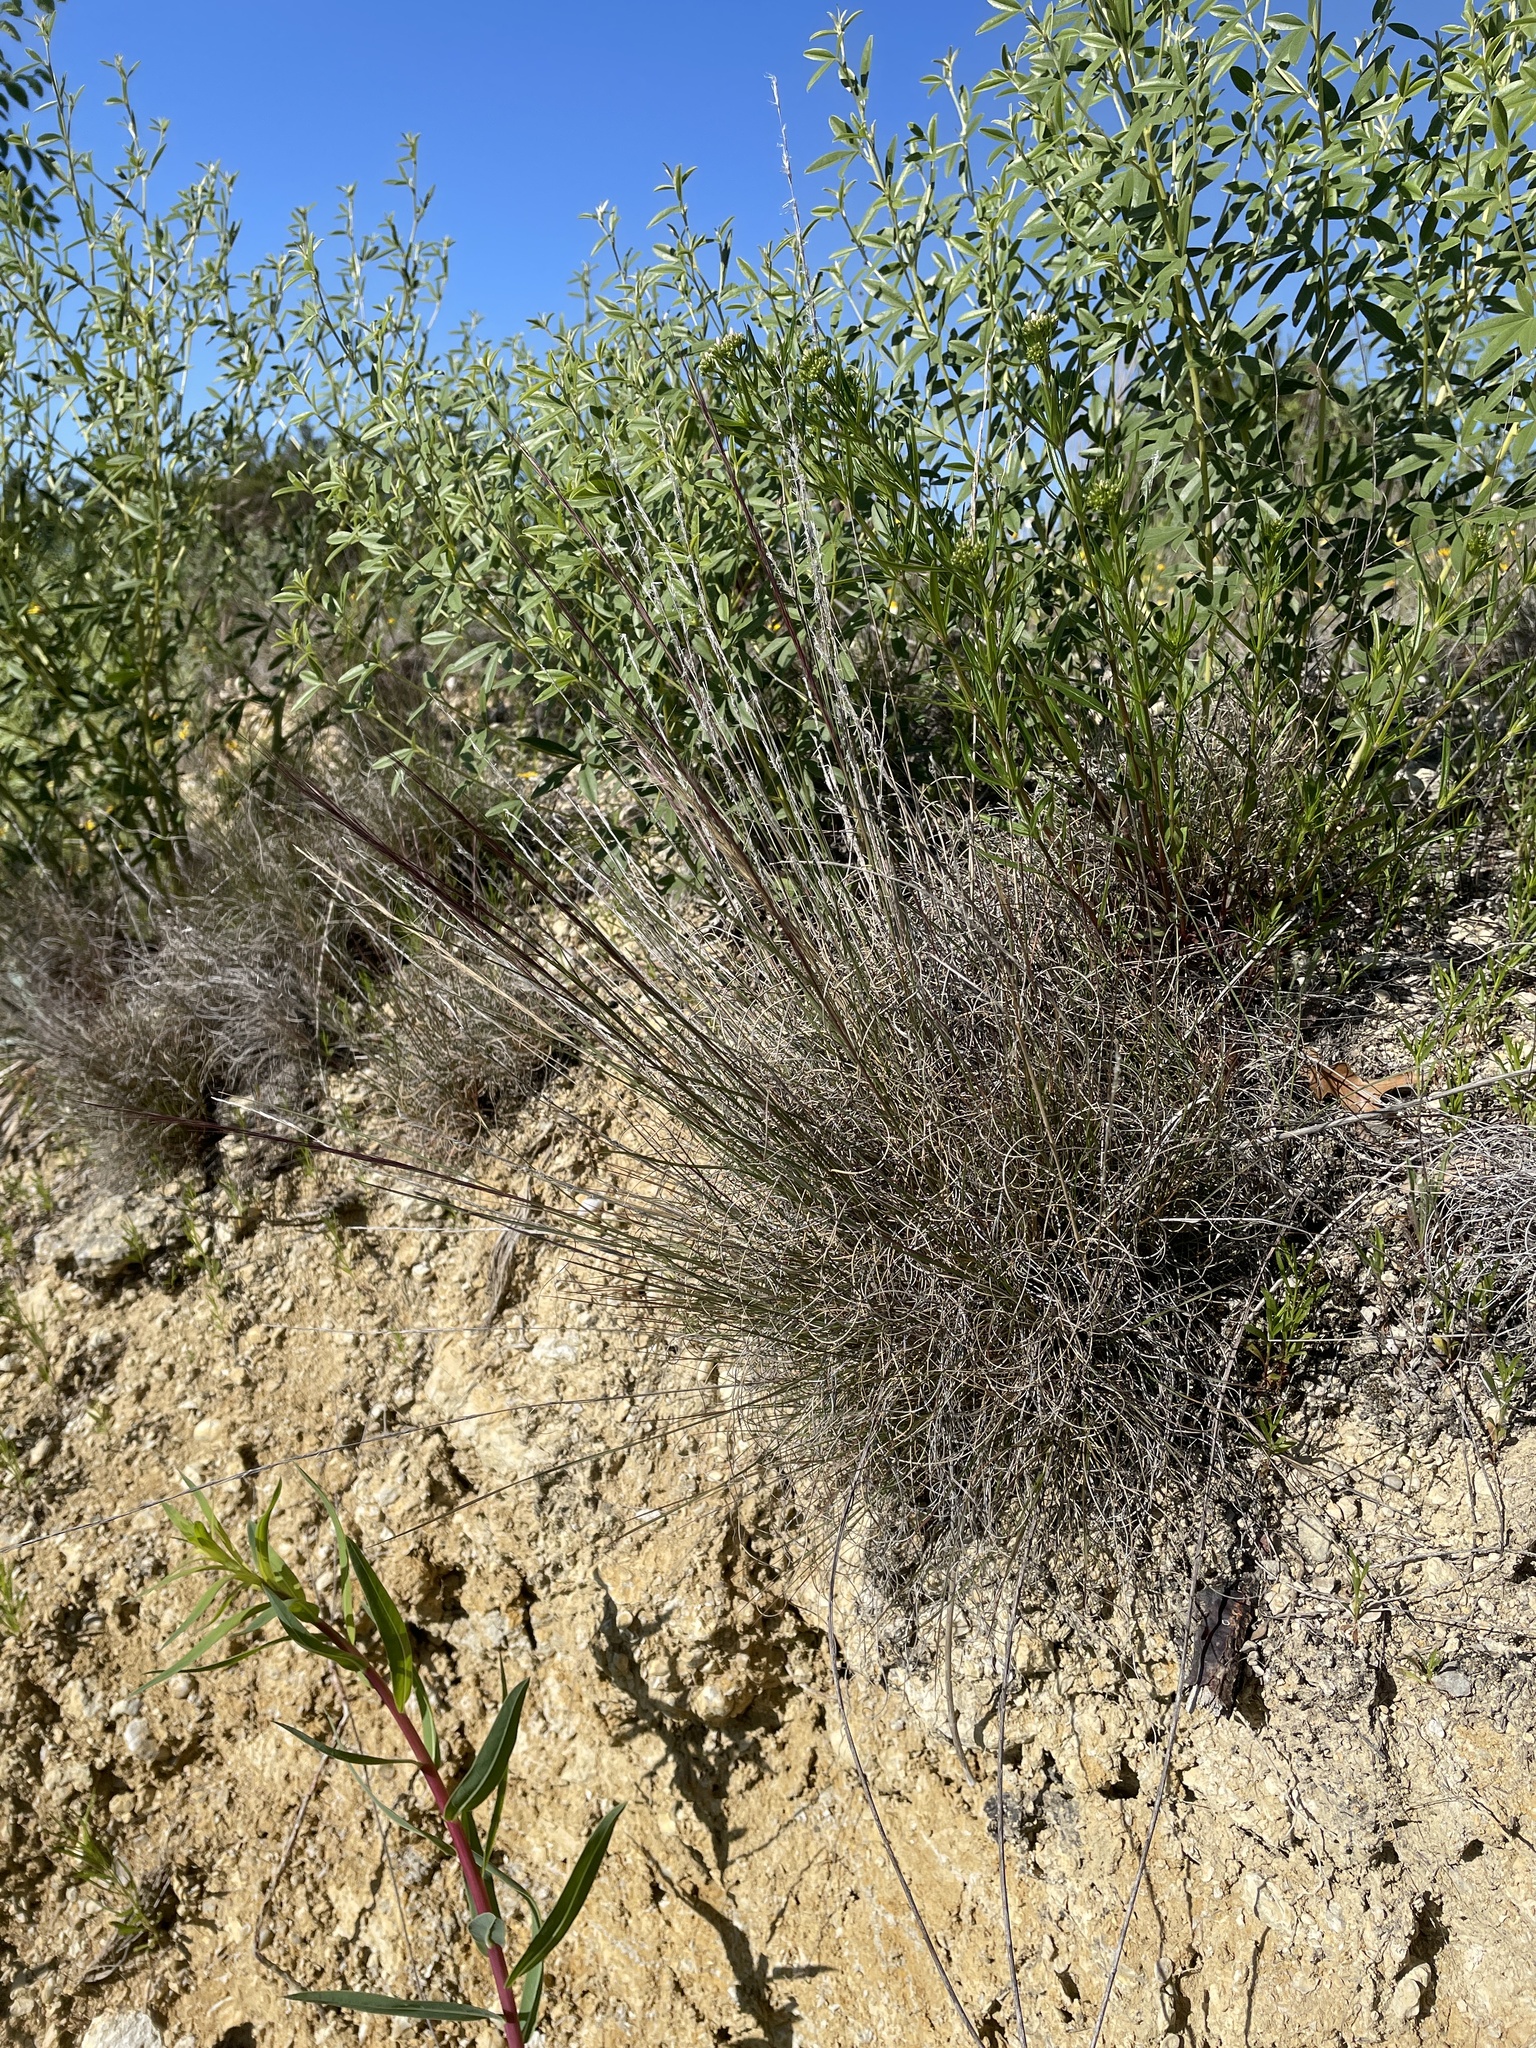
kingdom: Plantae
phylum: Tracheophyta
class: Liliopsida
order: Poales
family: Poaceae
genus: Aristida
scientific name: Aristida oligantha
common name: Few-flowered aristida
